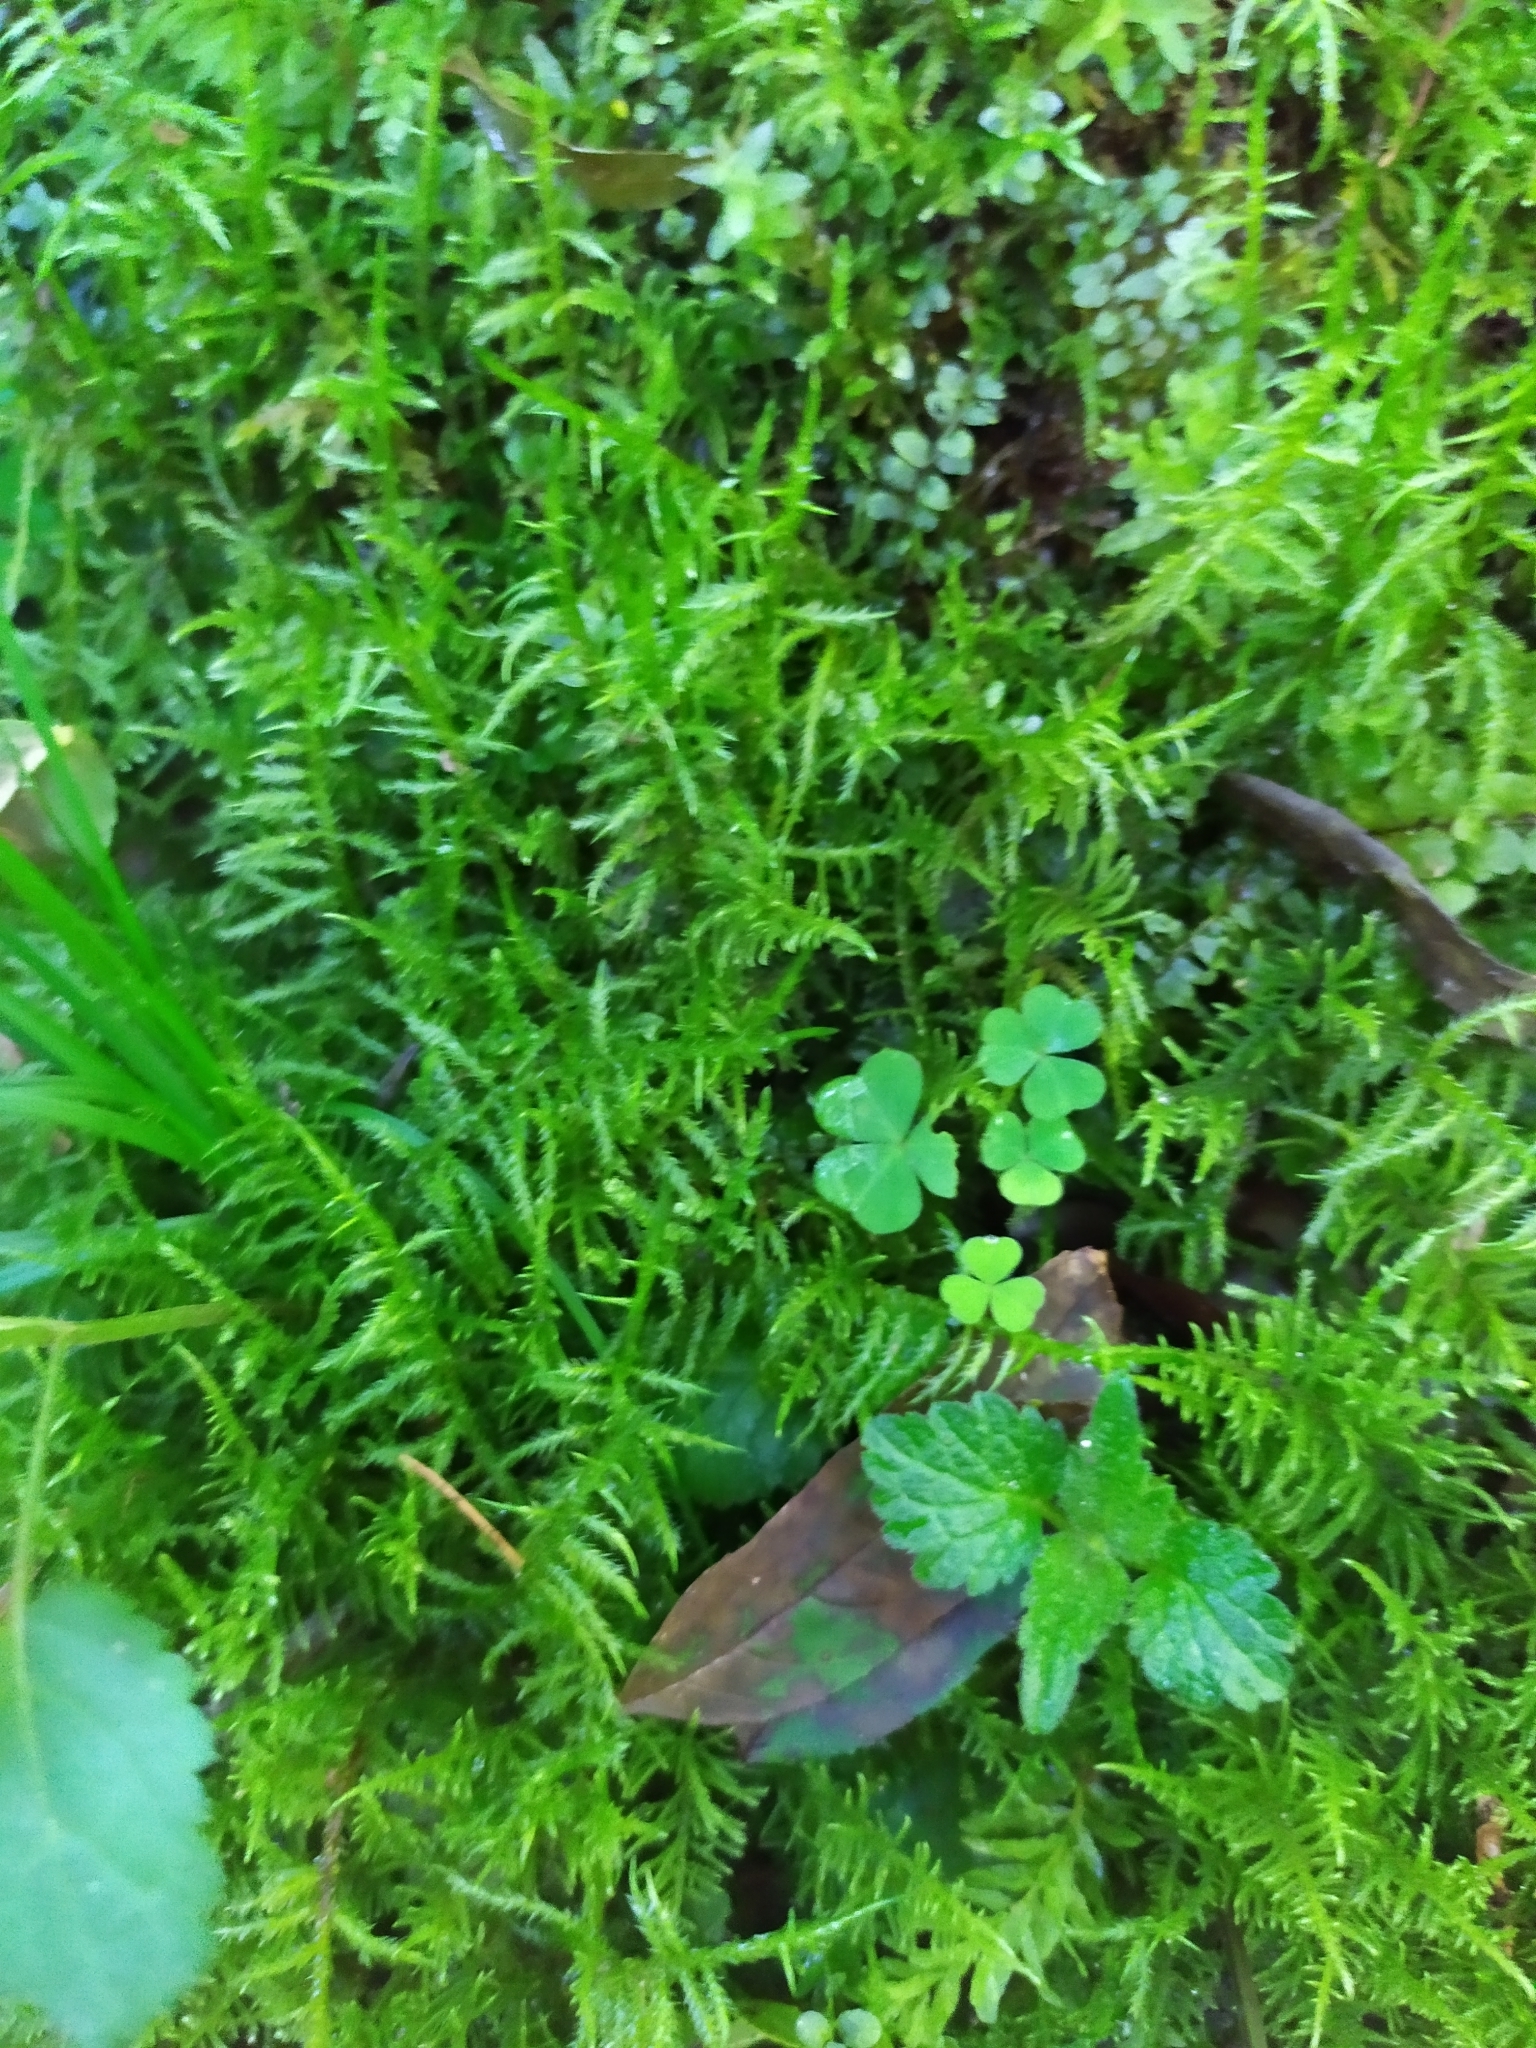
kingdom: Plantae
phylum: Bryophyta
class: Bryopsida
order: Hypnales
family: Brachytheciaceae
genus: Cirriphyllum
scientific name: Cirriphyllum piliferum
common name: Hair-pointed moss
